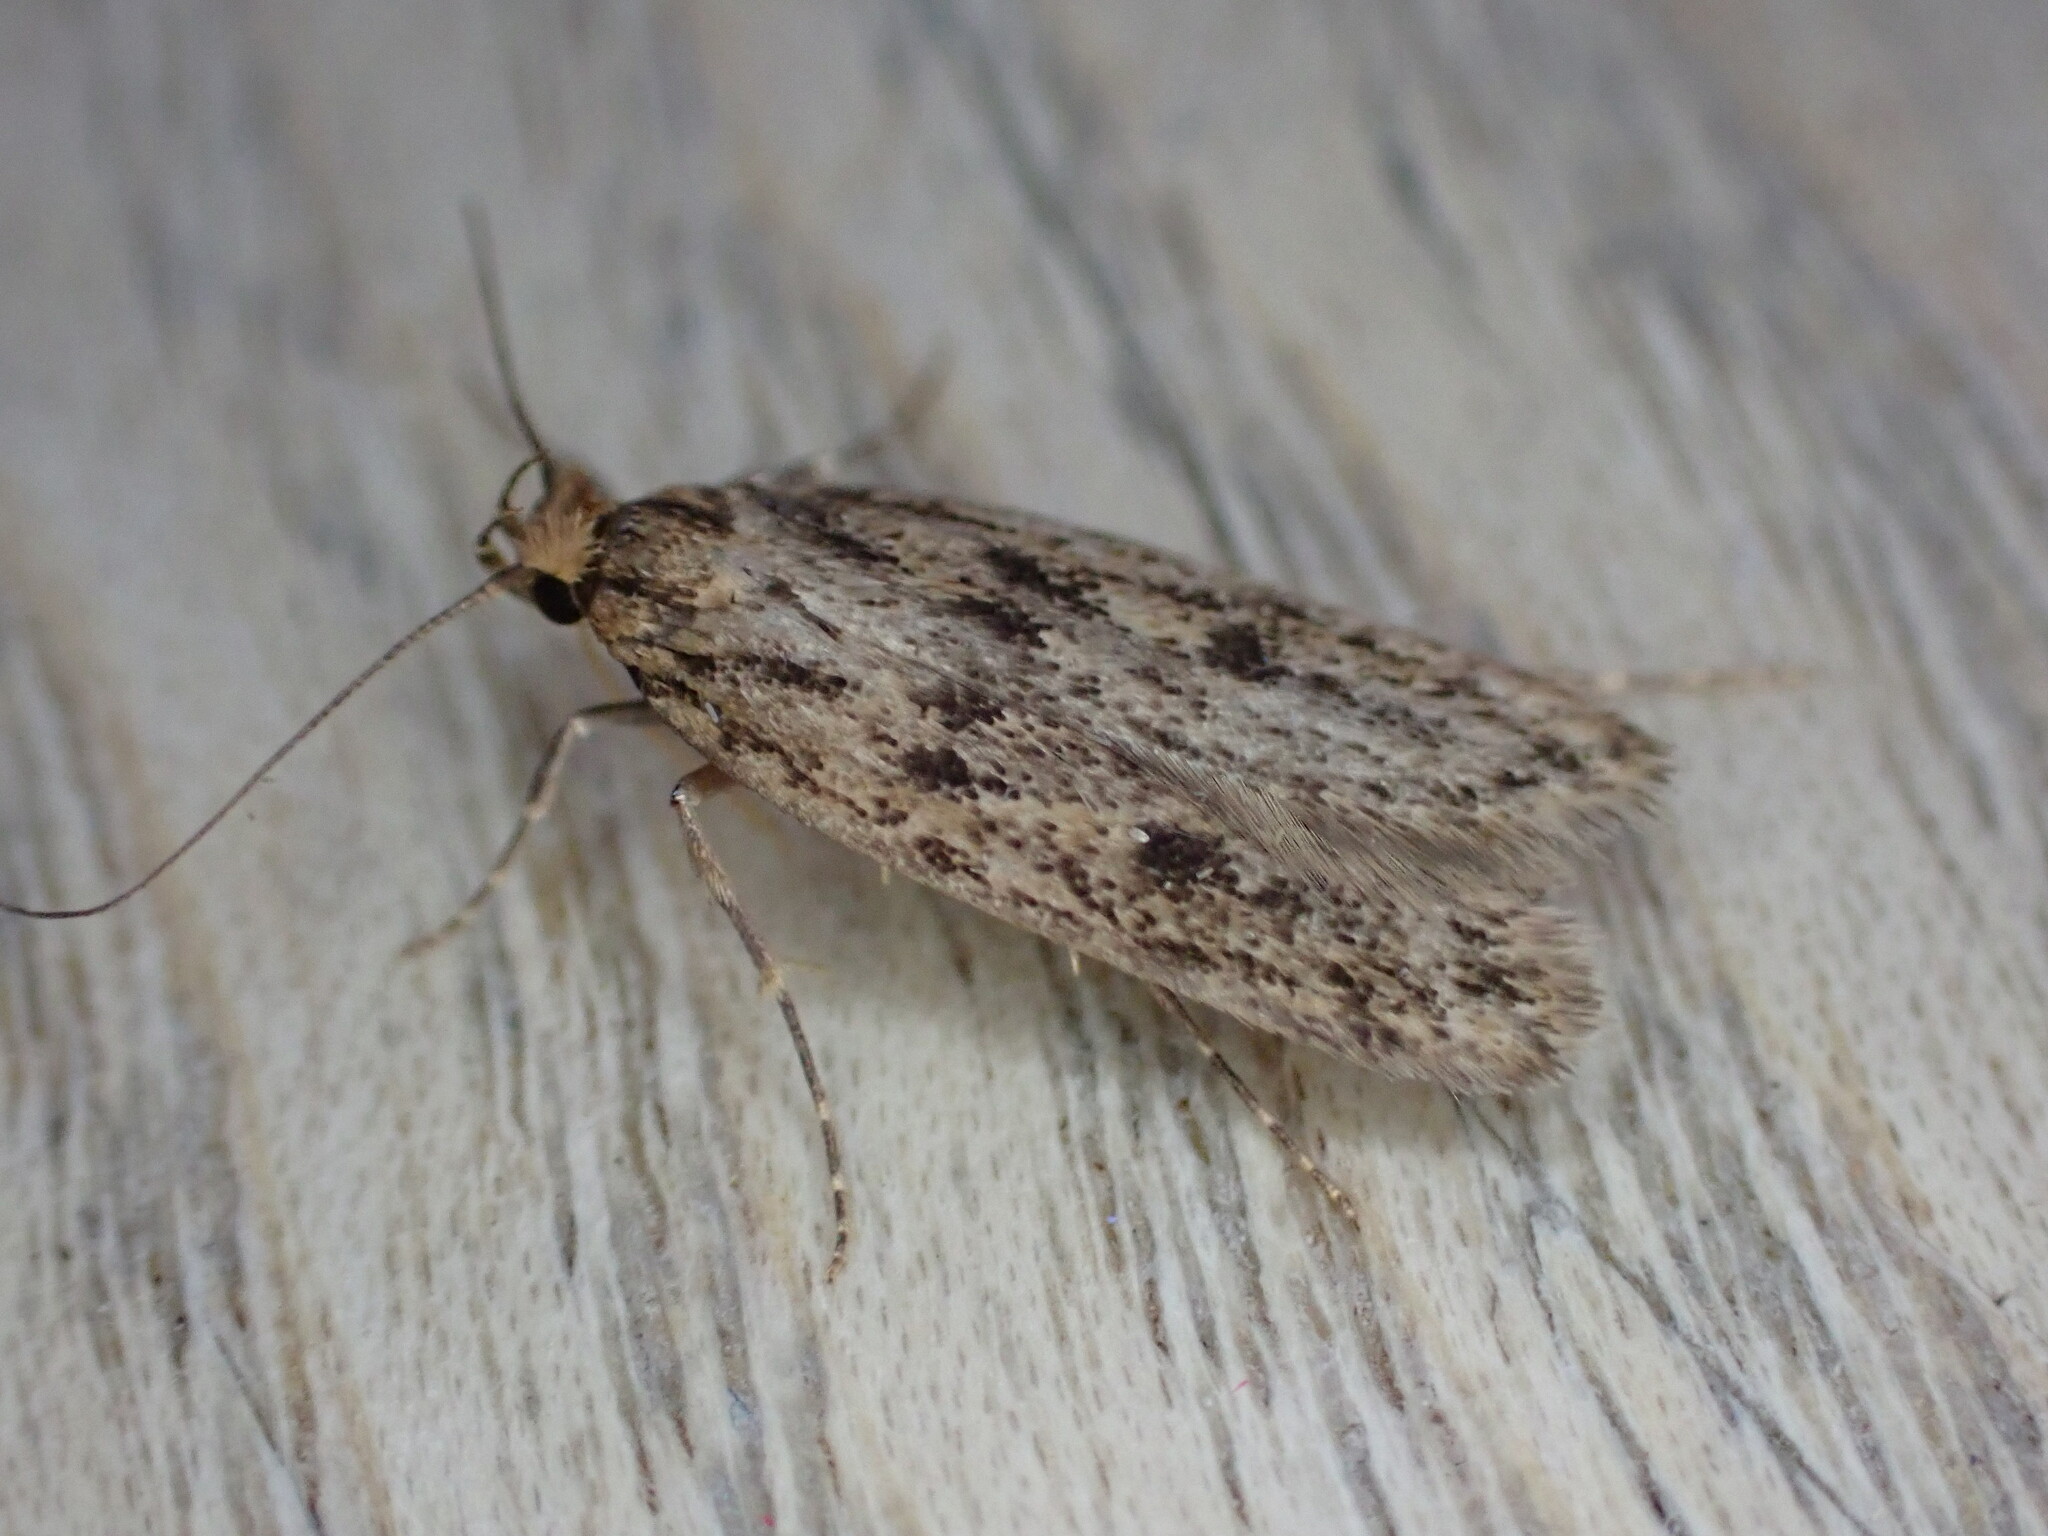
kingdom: Animalia
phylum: Arthropoda
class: Insecta
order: Lepidoptera
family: Oecophoridae
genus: Hofmannophila
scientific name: Hofmannophila pseudospretella
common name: Brown house moth
